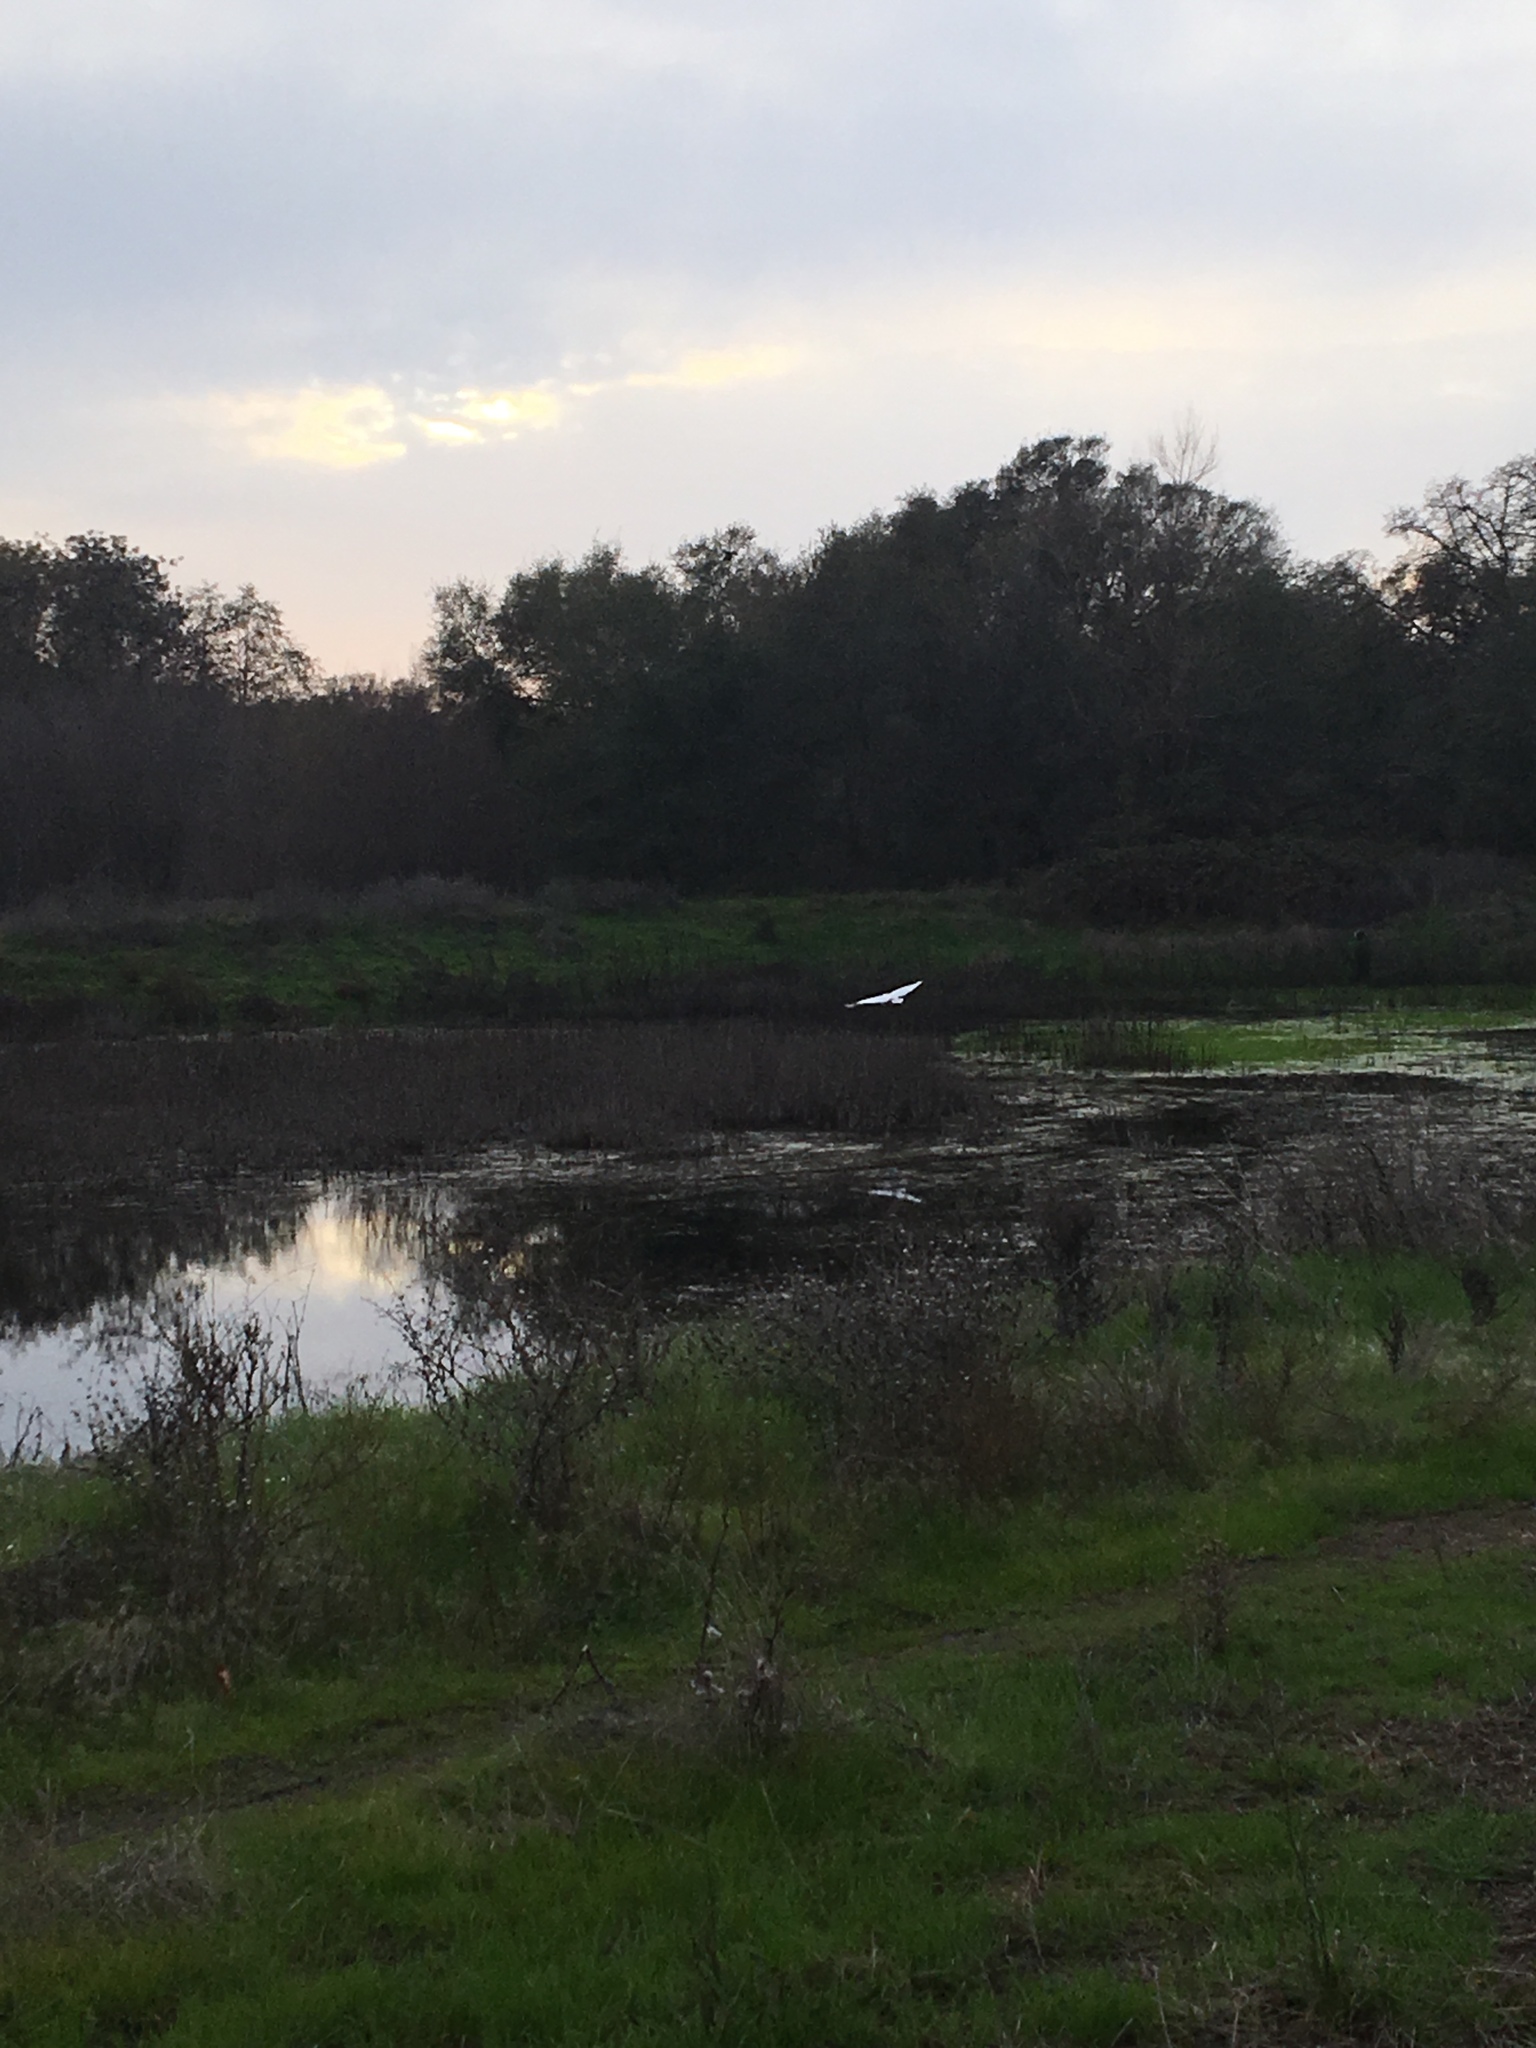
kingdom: Animalia
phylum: Chordata
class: Aves
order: Pelecaniformes
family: Ardeidae
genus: Ardea
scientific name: Ardea alba
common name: Great egret
